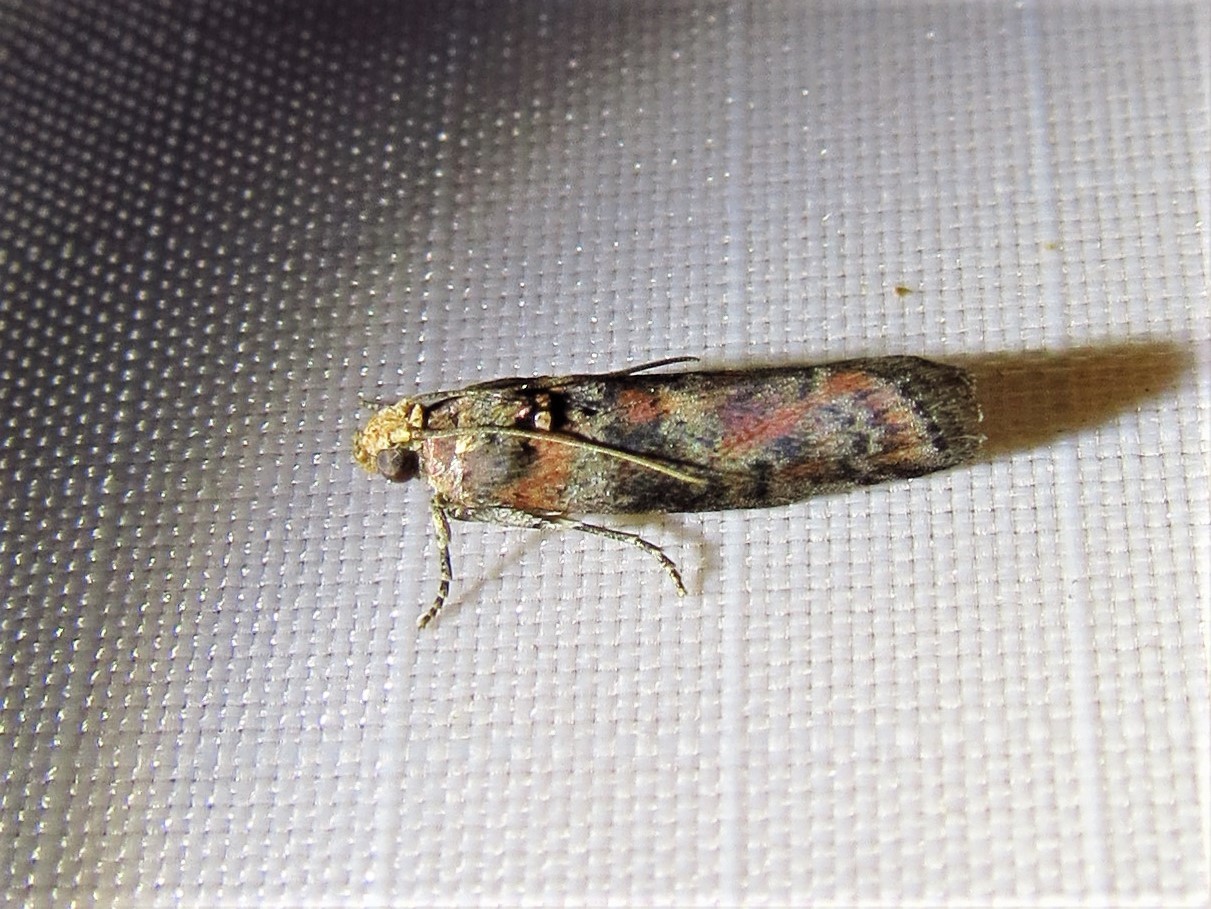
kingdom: Animalia
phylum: Arthropoda
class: Insecta
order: Lepidoptera
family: Pyralidae
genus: Sciota
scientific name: Sciota
